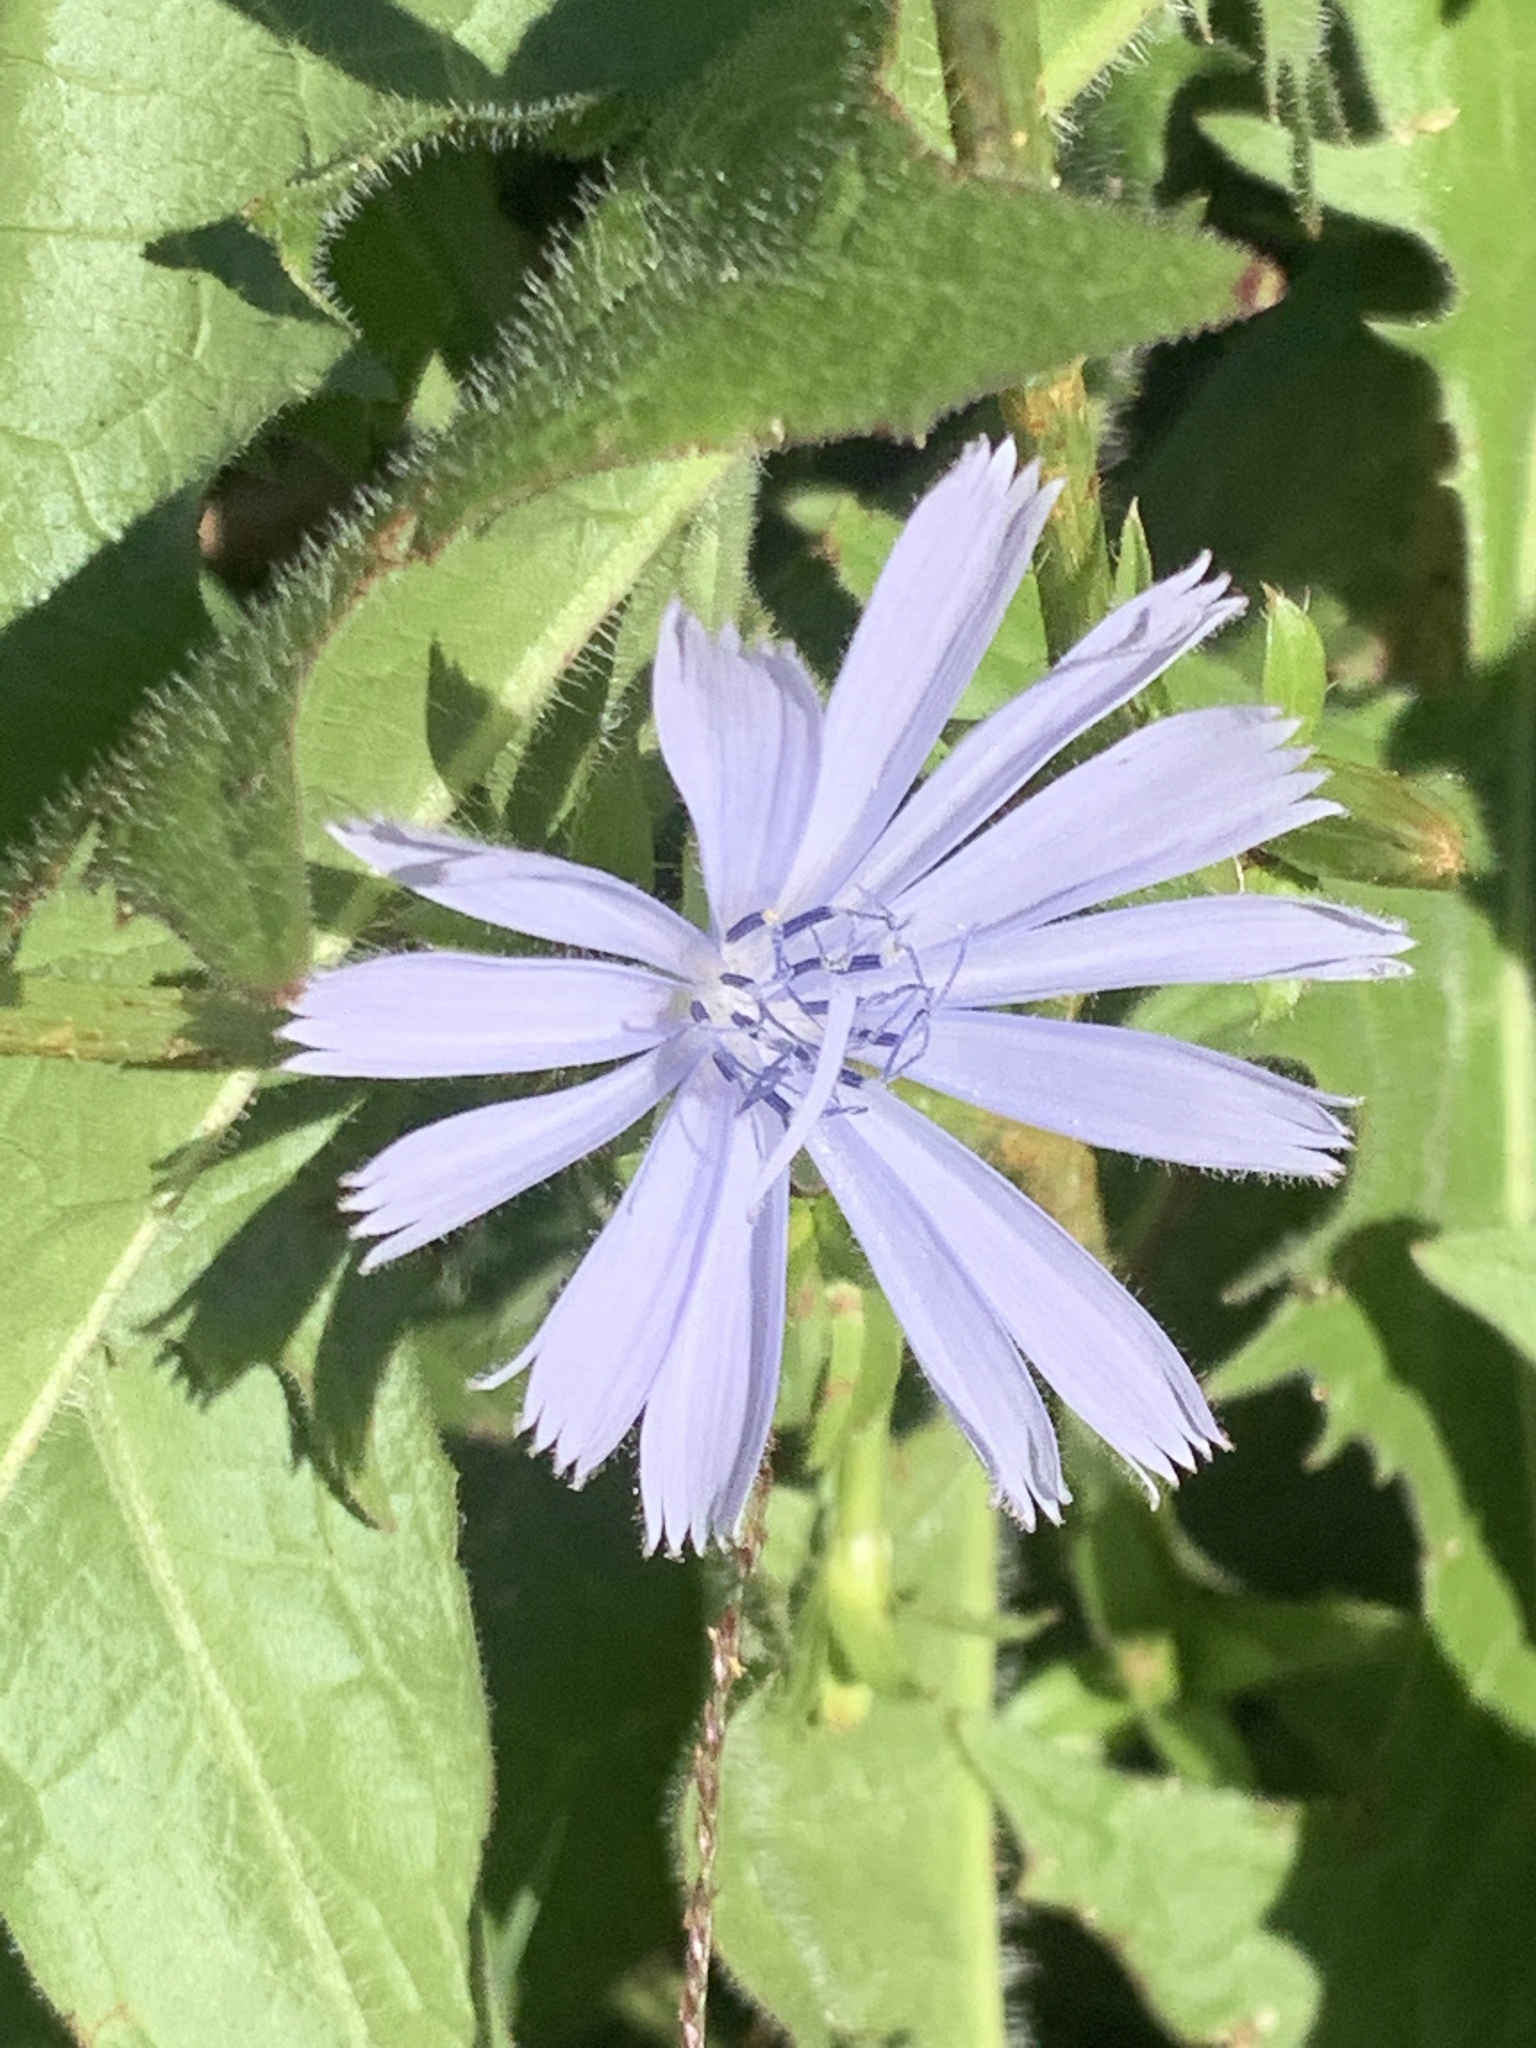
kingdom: Plantae
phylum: Tracheophyta
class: Magnoliopsida
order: Asterales
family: Asteraceae
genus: Cichorium
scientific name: Cichorium intybus
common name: Chicory
